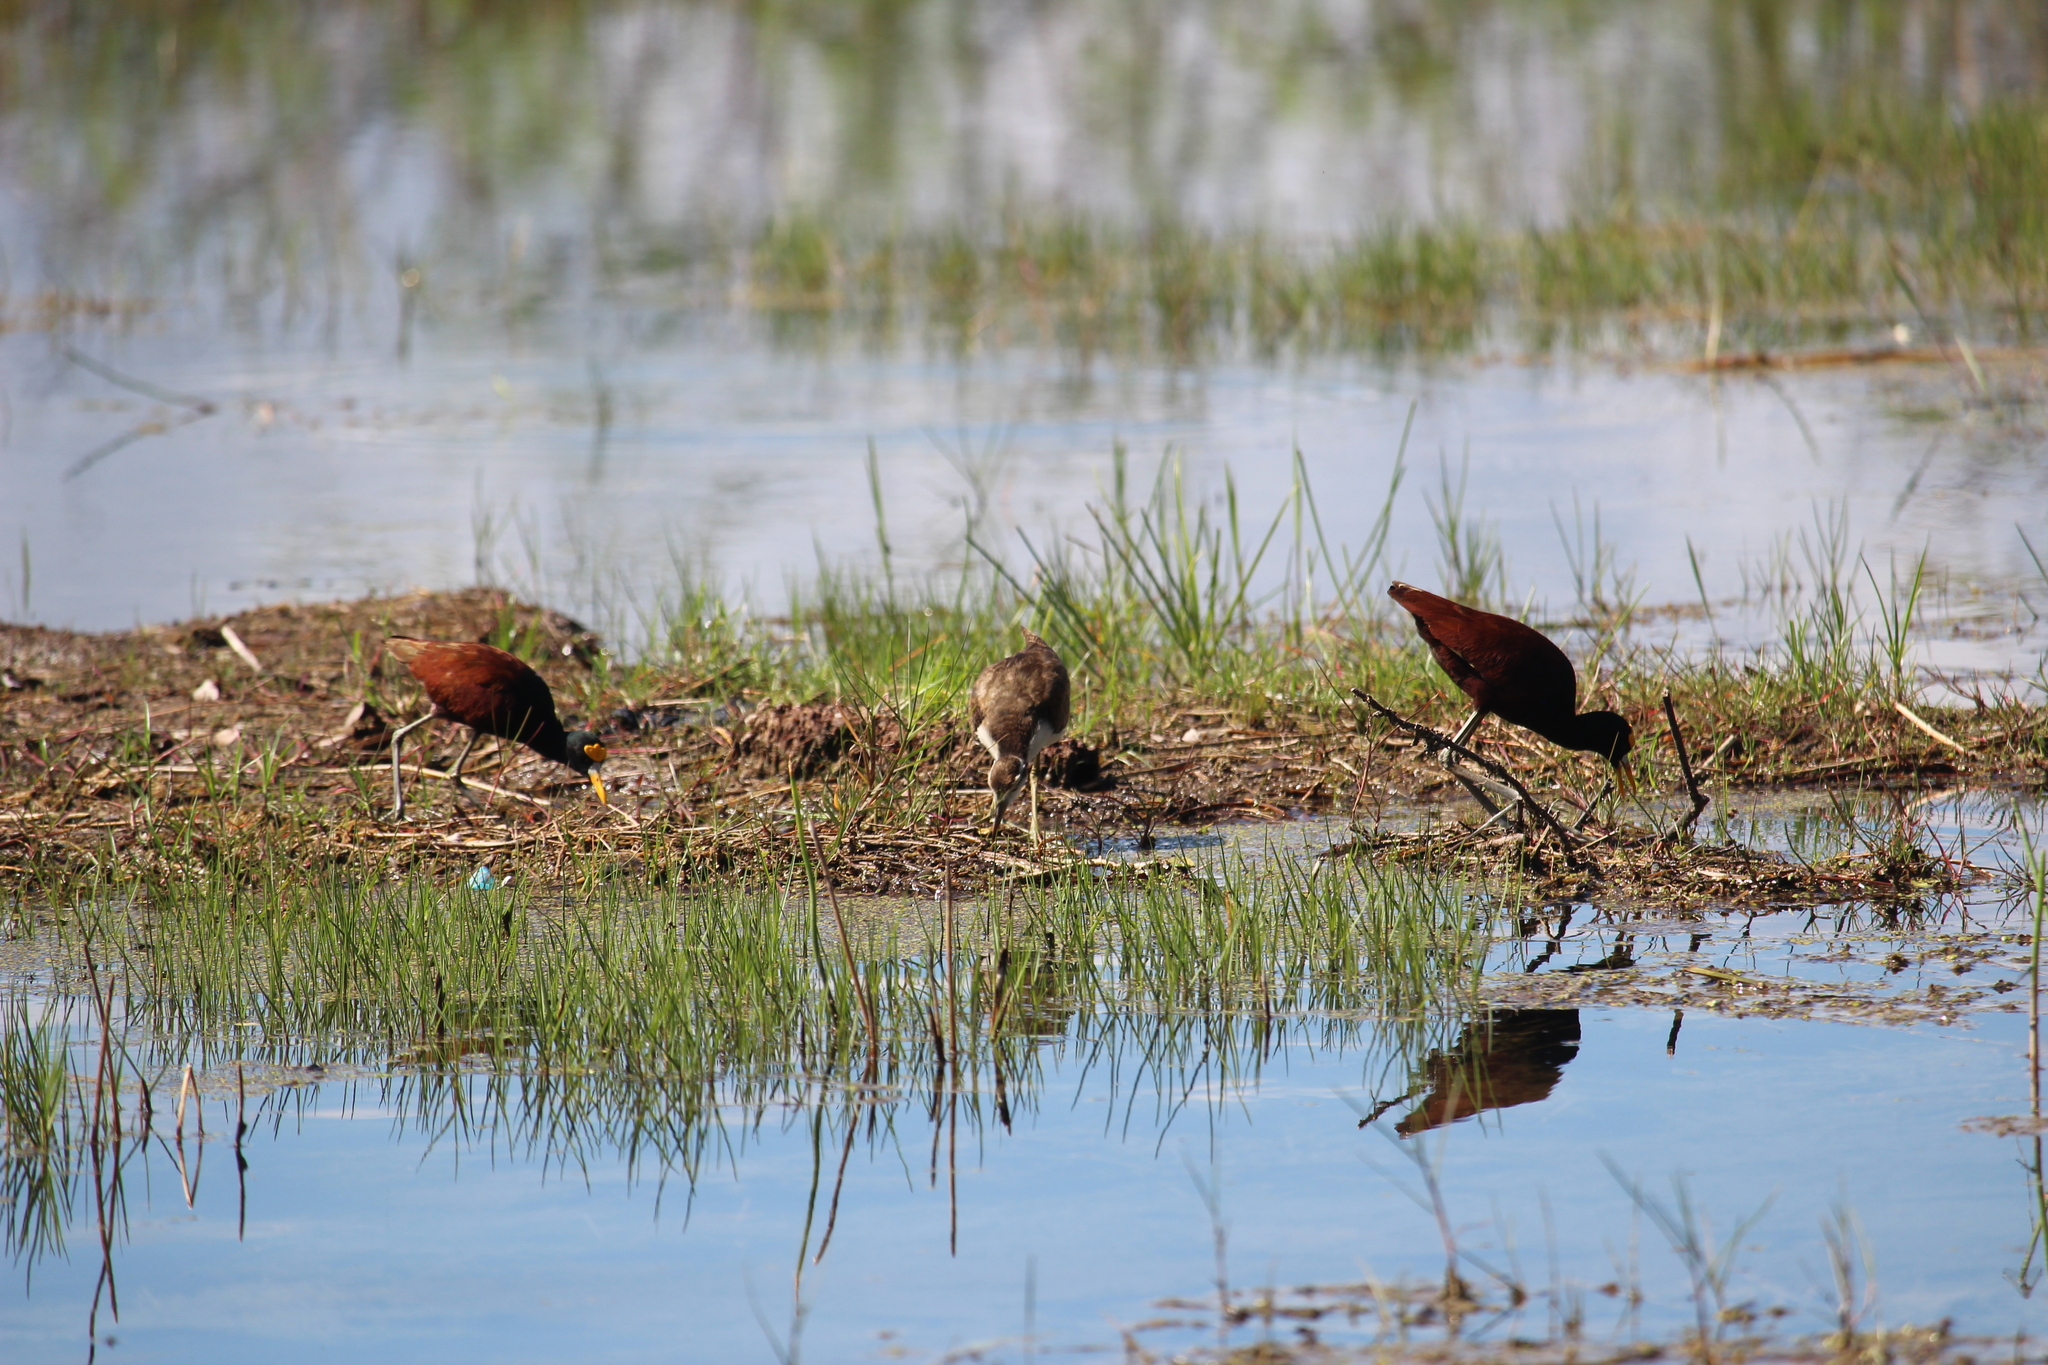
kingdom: Animalia
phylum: Chordata
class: Aves
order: Charadriiformes
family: Jacanidae
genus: Jacana
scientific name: Jacana spinosa
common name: Northern jacana
